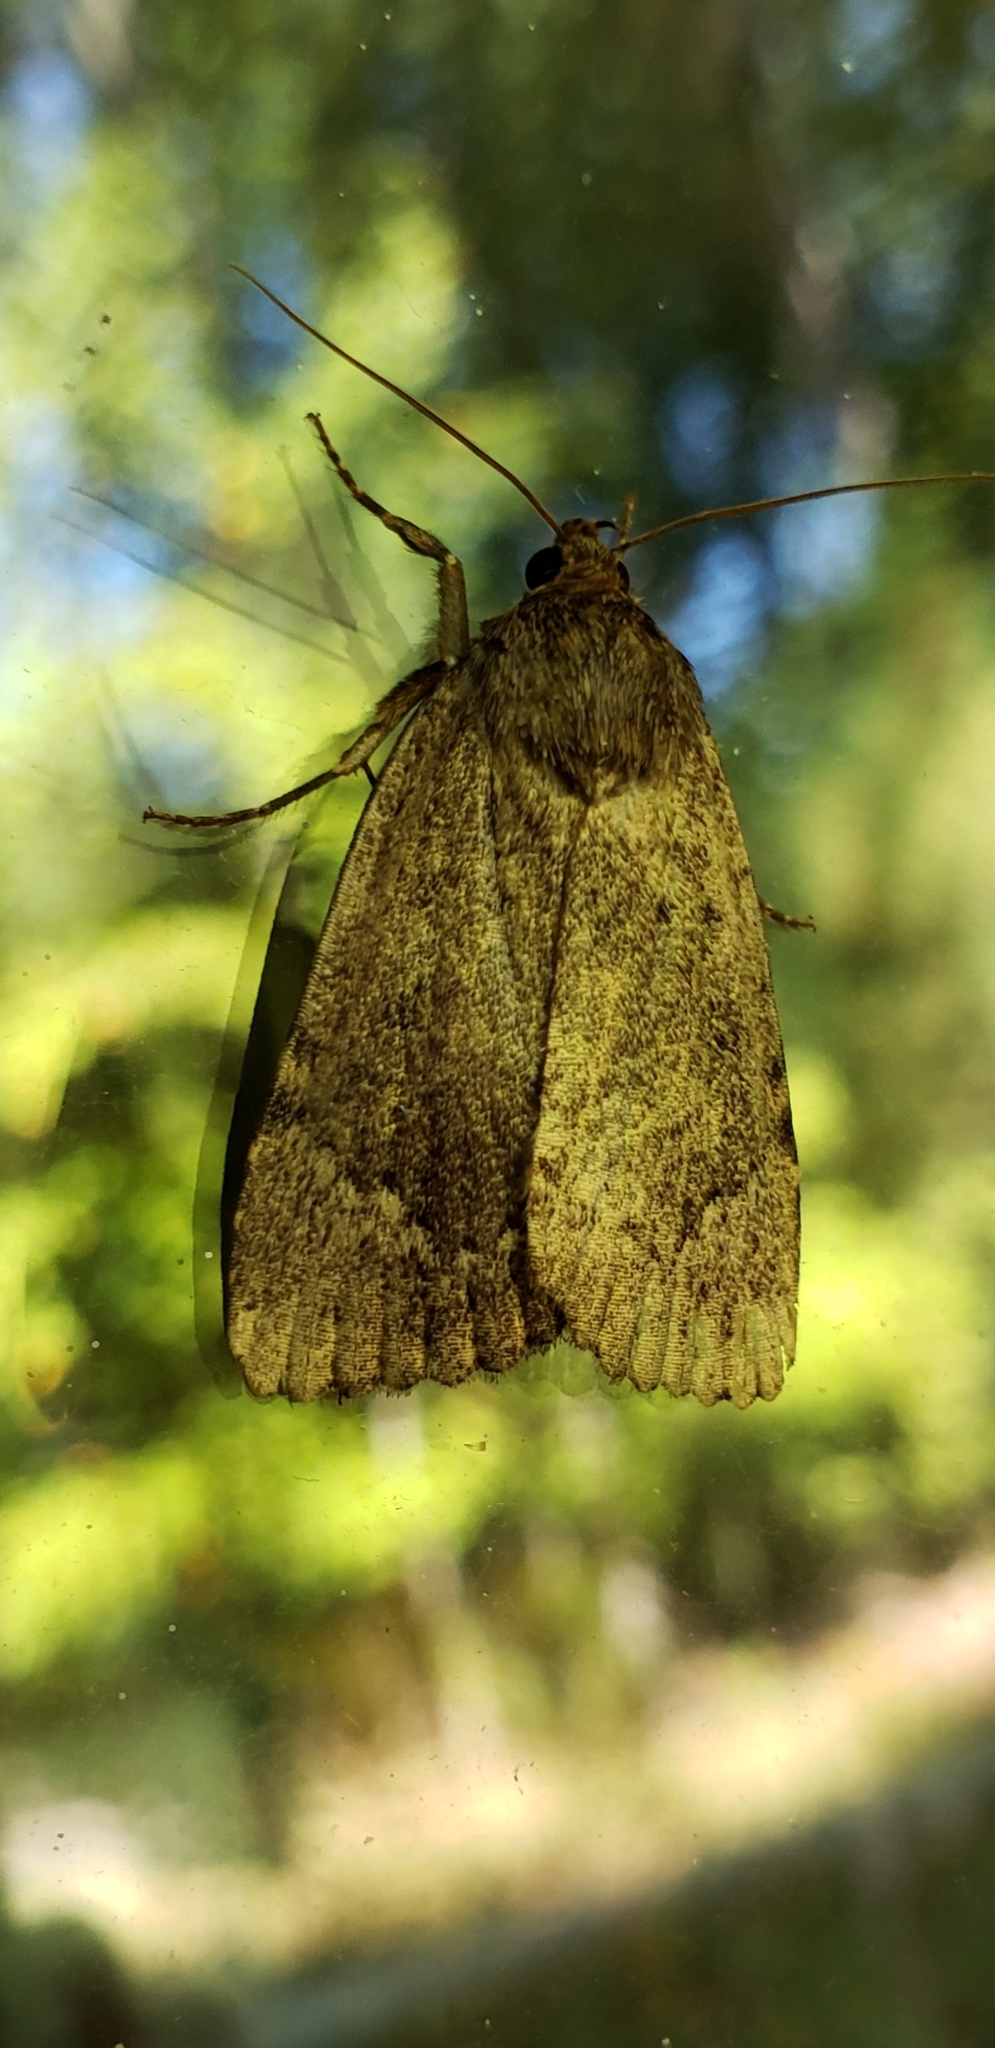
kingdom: Animalia
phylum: Arthropoda
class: Insecta
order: Lepidoptera
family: Noctuidae
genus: Amphipyra
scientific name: Amphipyra pyramidoides
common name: American copper underwing
